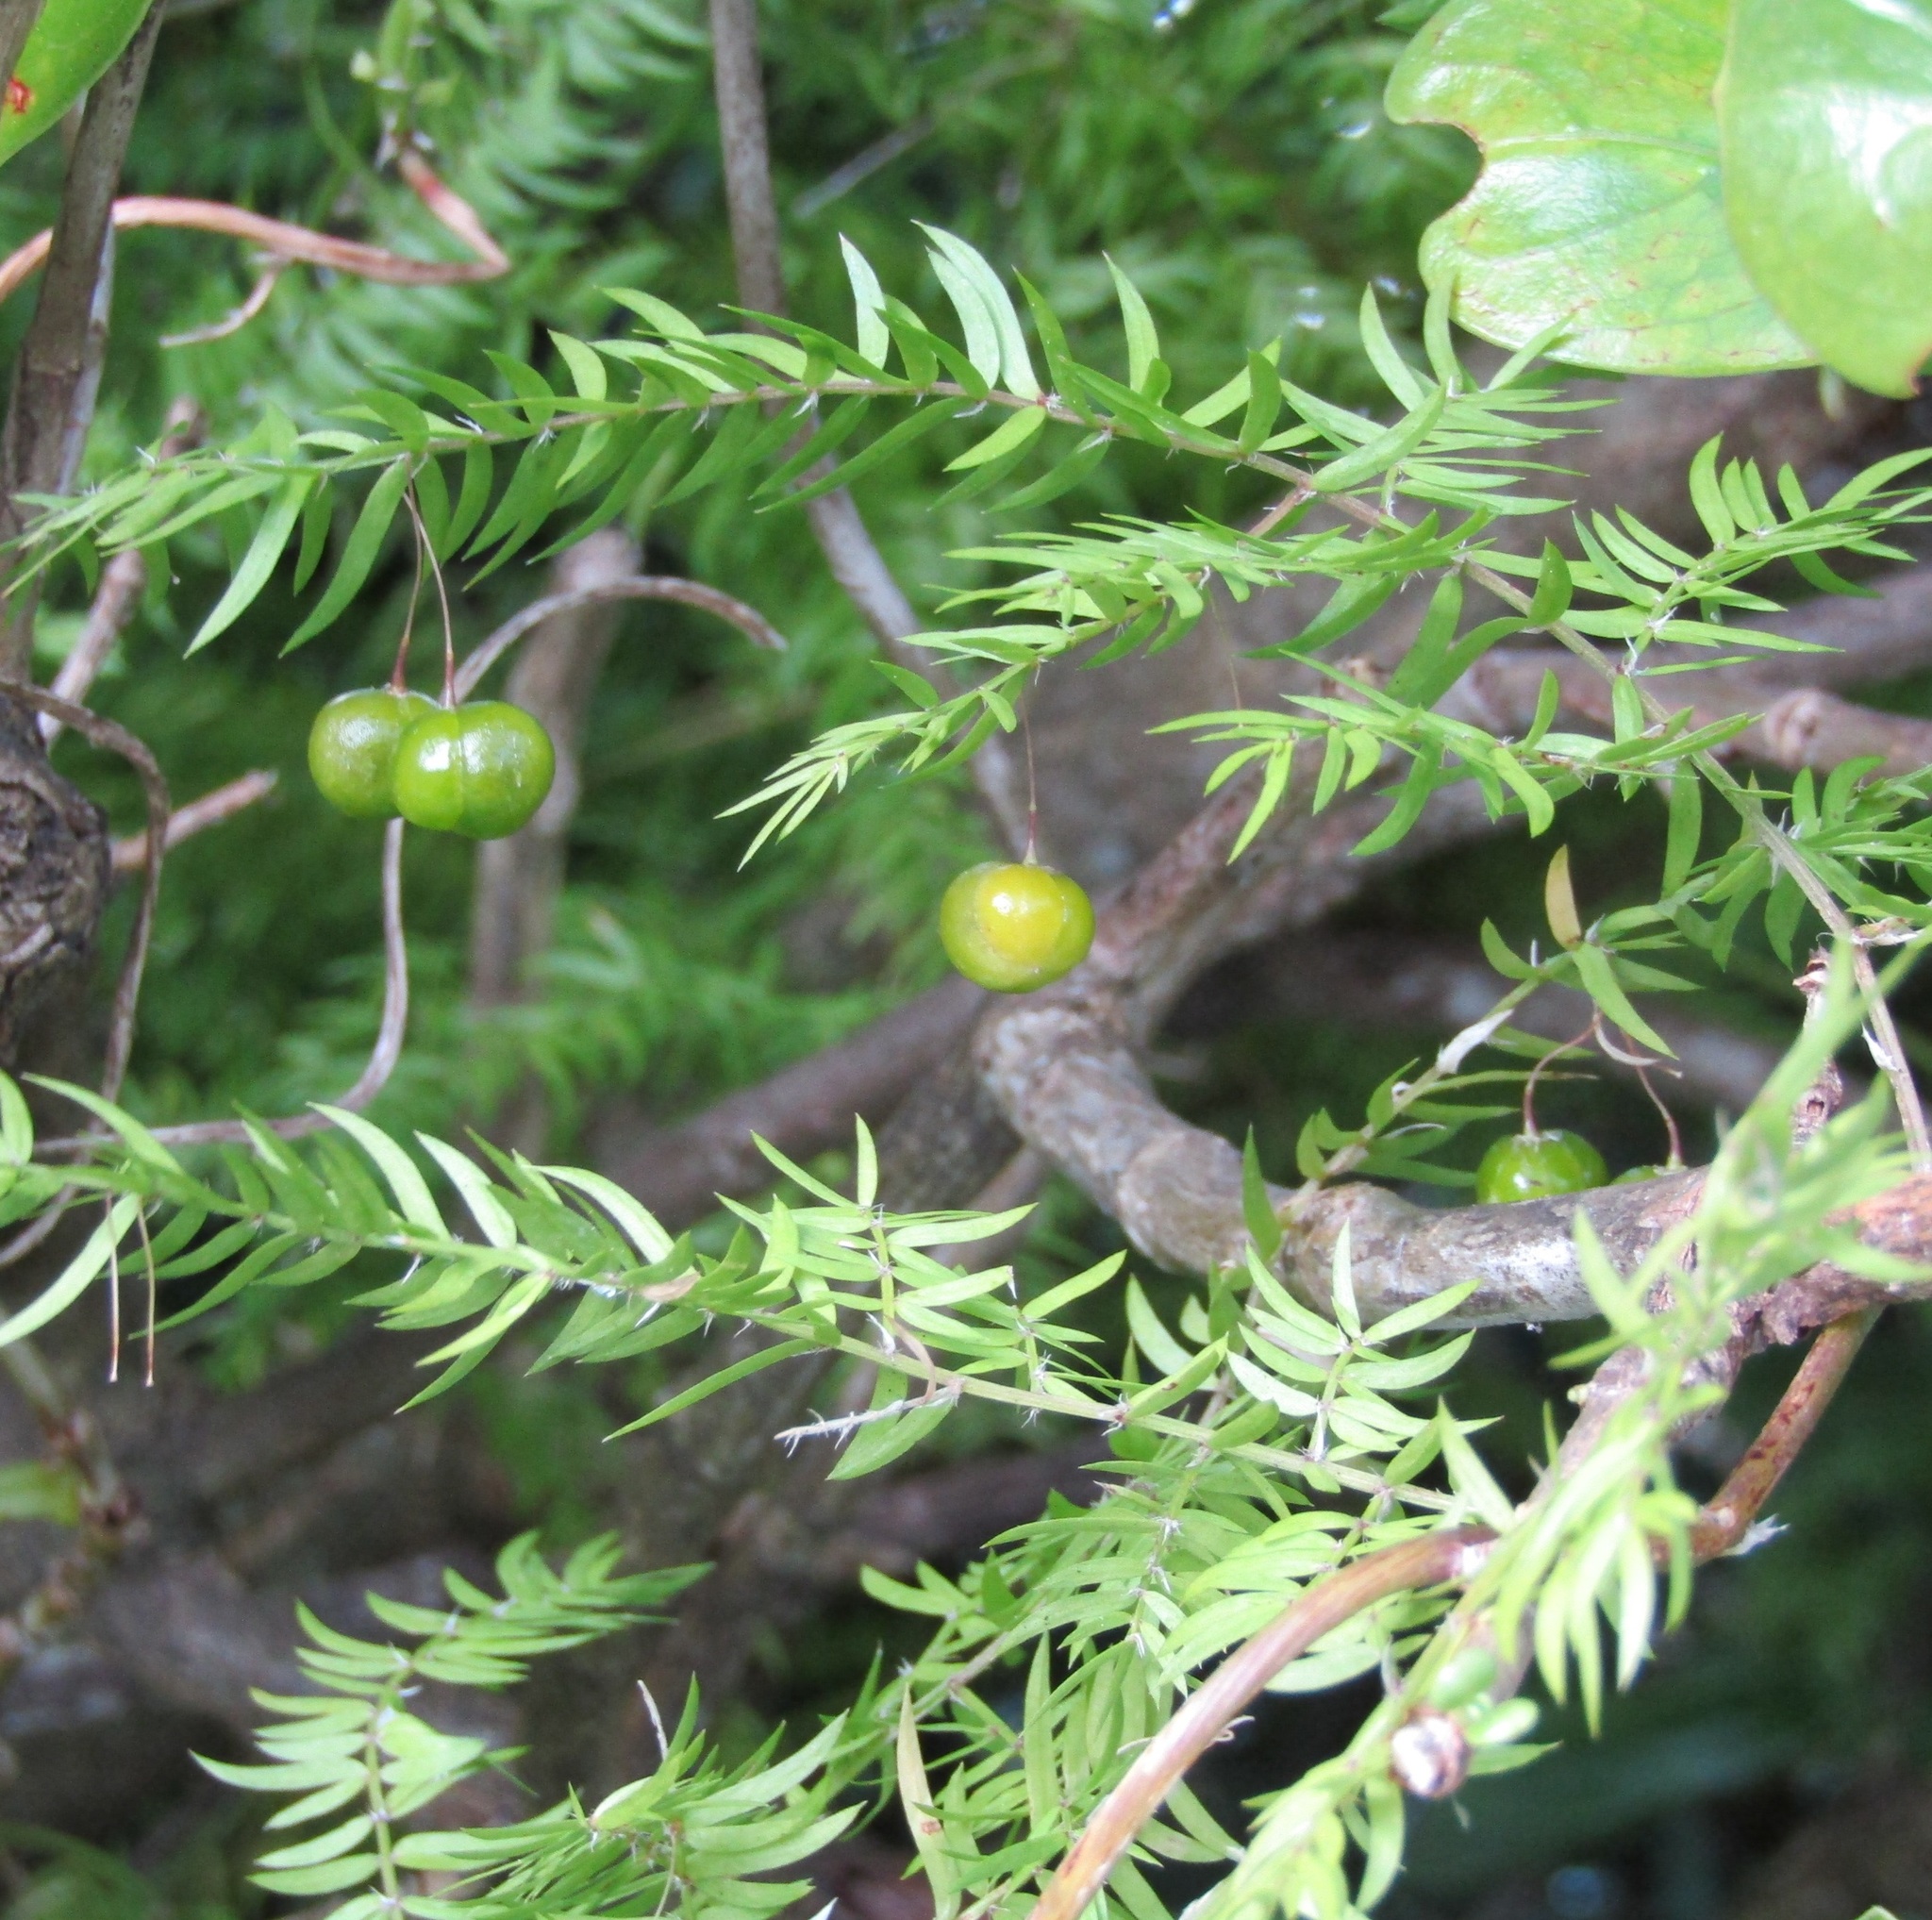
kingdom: Plantae
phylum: Tracheophyta
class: Liliopsida
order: Asparagales
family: Asparagaceae
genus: Asparagus
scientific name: Asparagus scandens
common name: Asparagus-fern
